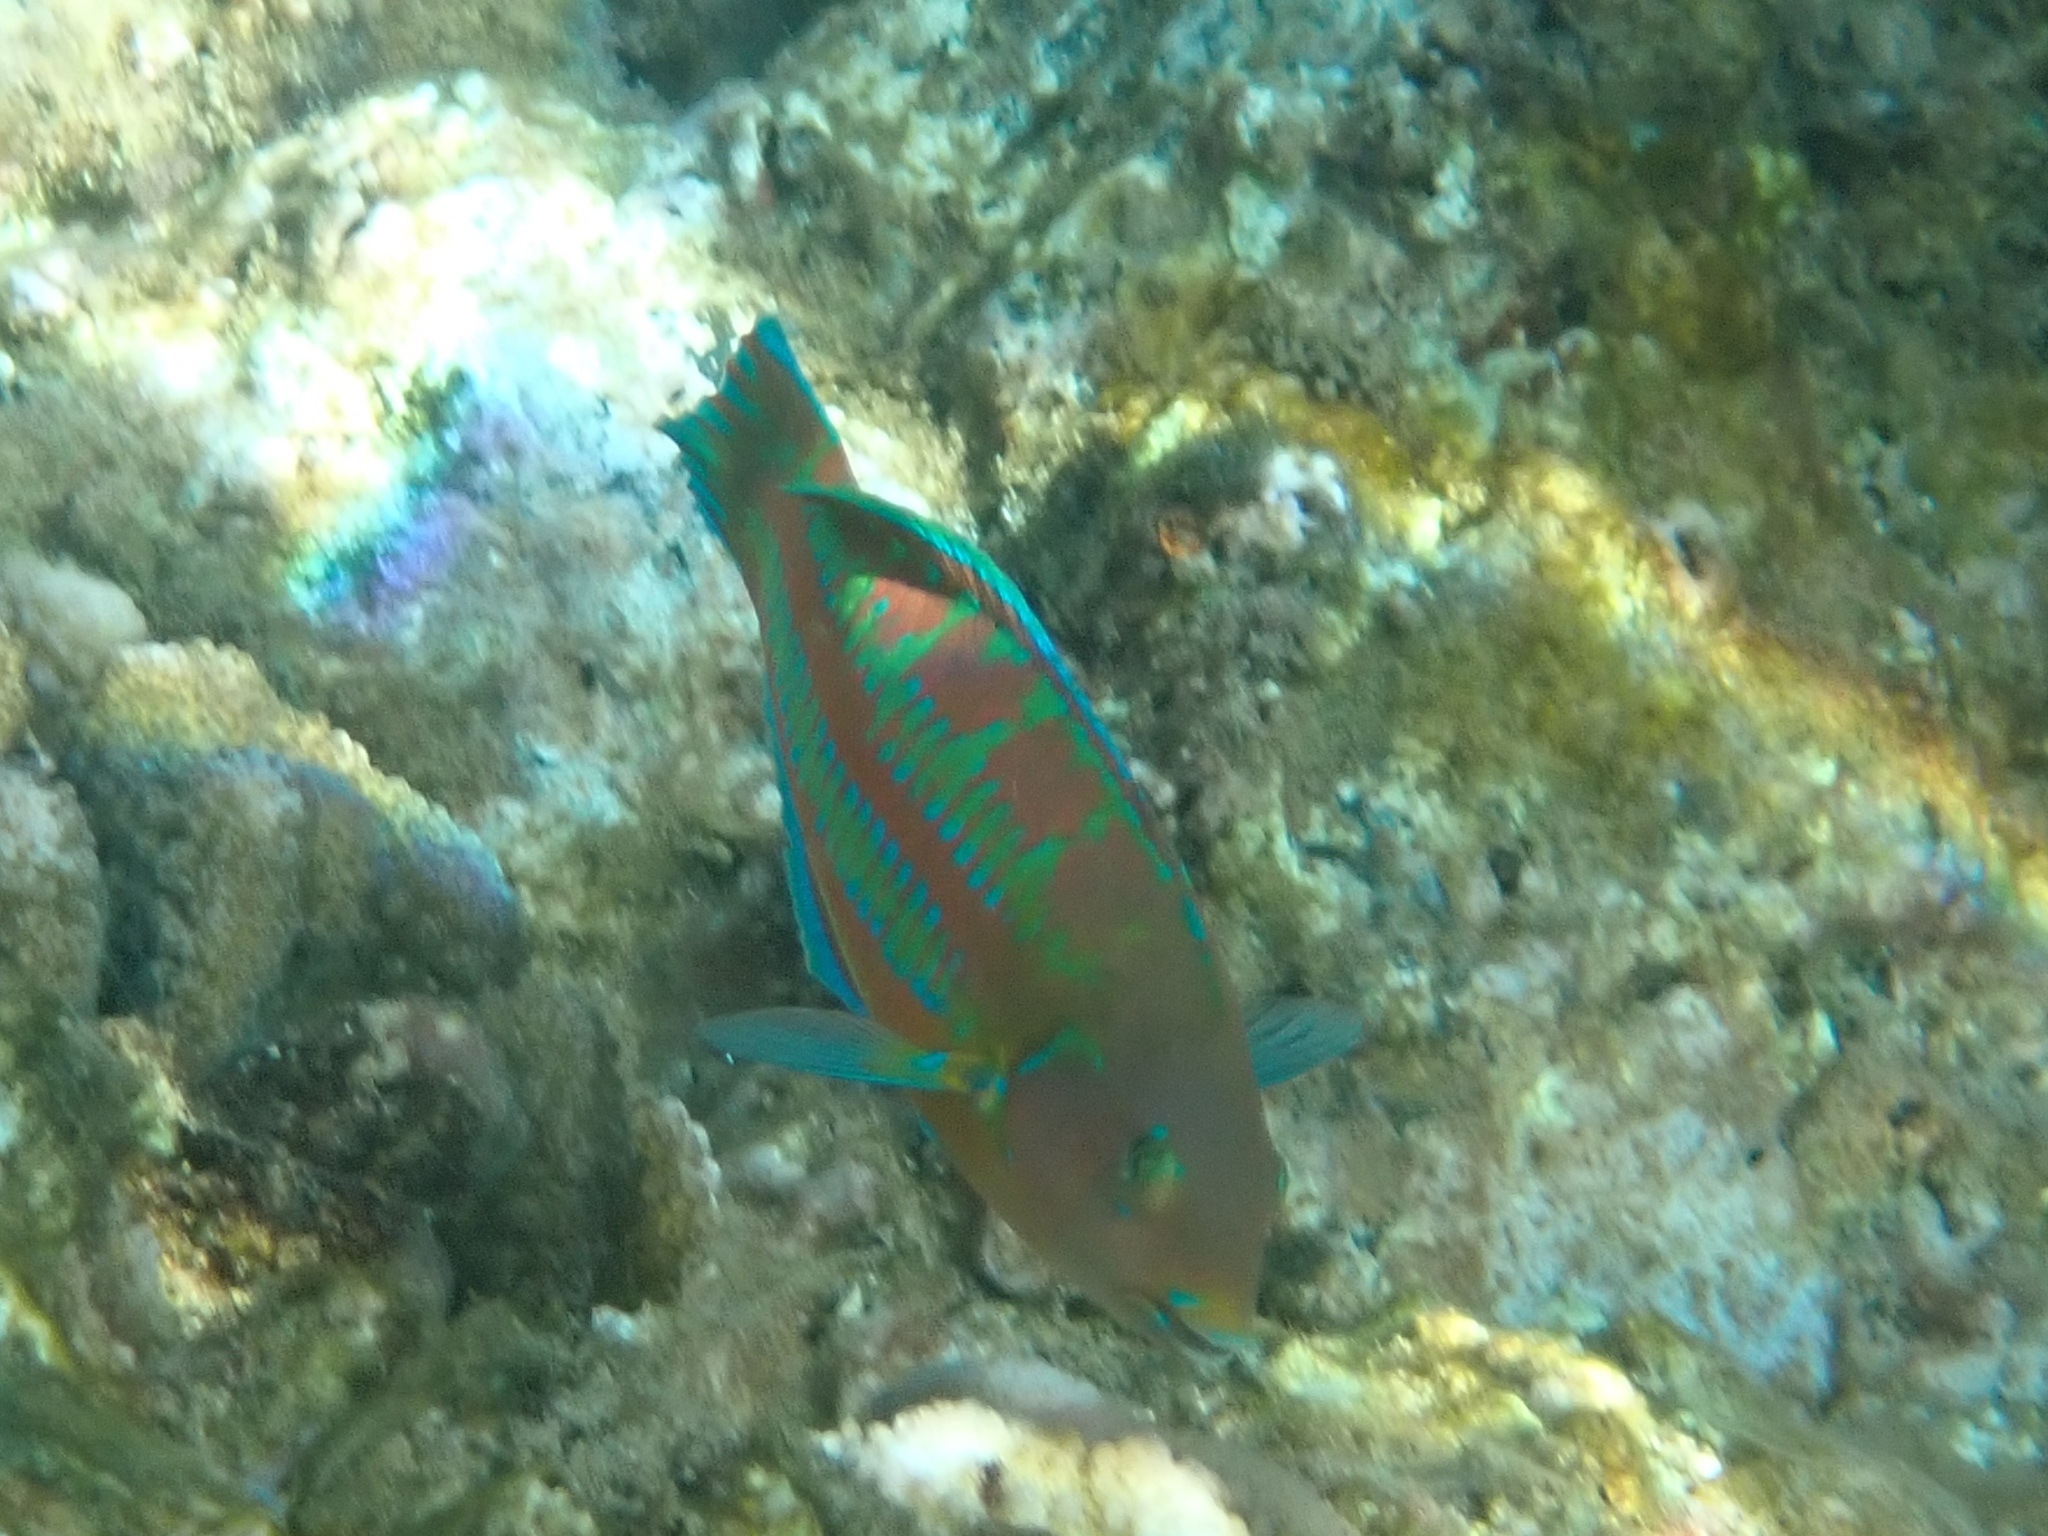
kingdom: Animalia
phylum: Chordata
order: Perciformes
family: Labridae
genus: Thalassoma
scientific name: Thalassoma trilobatum
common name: Christmas wrasse
